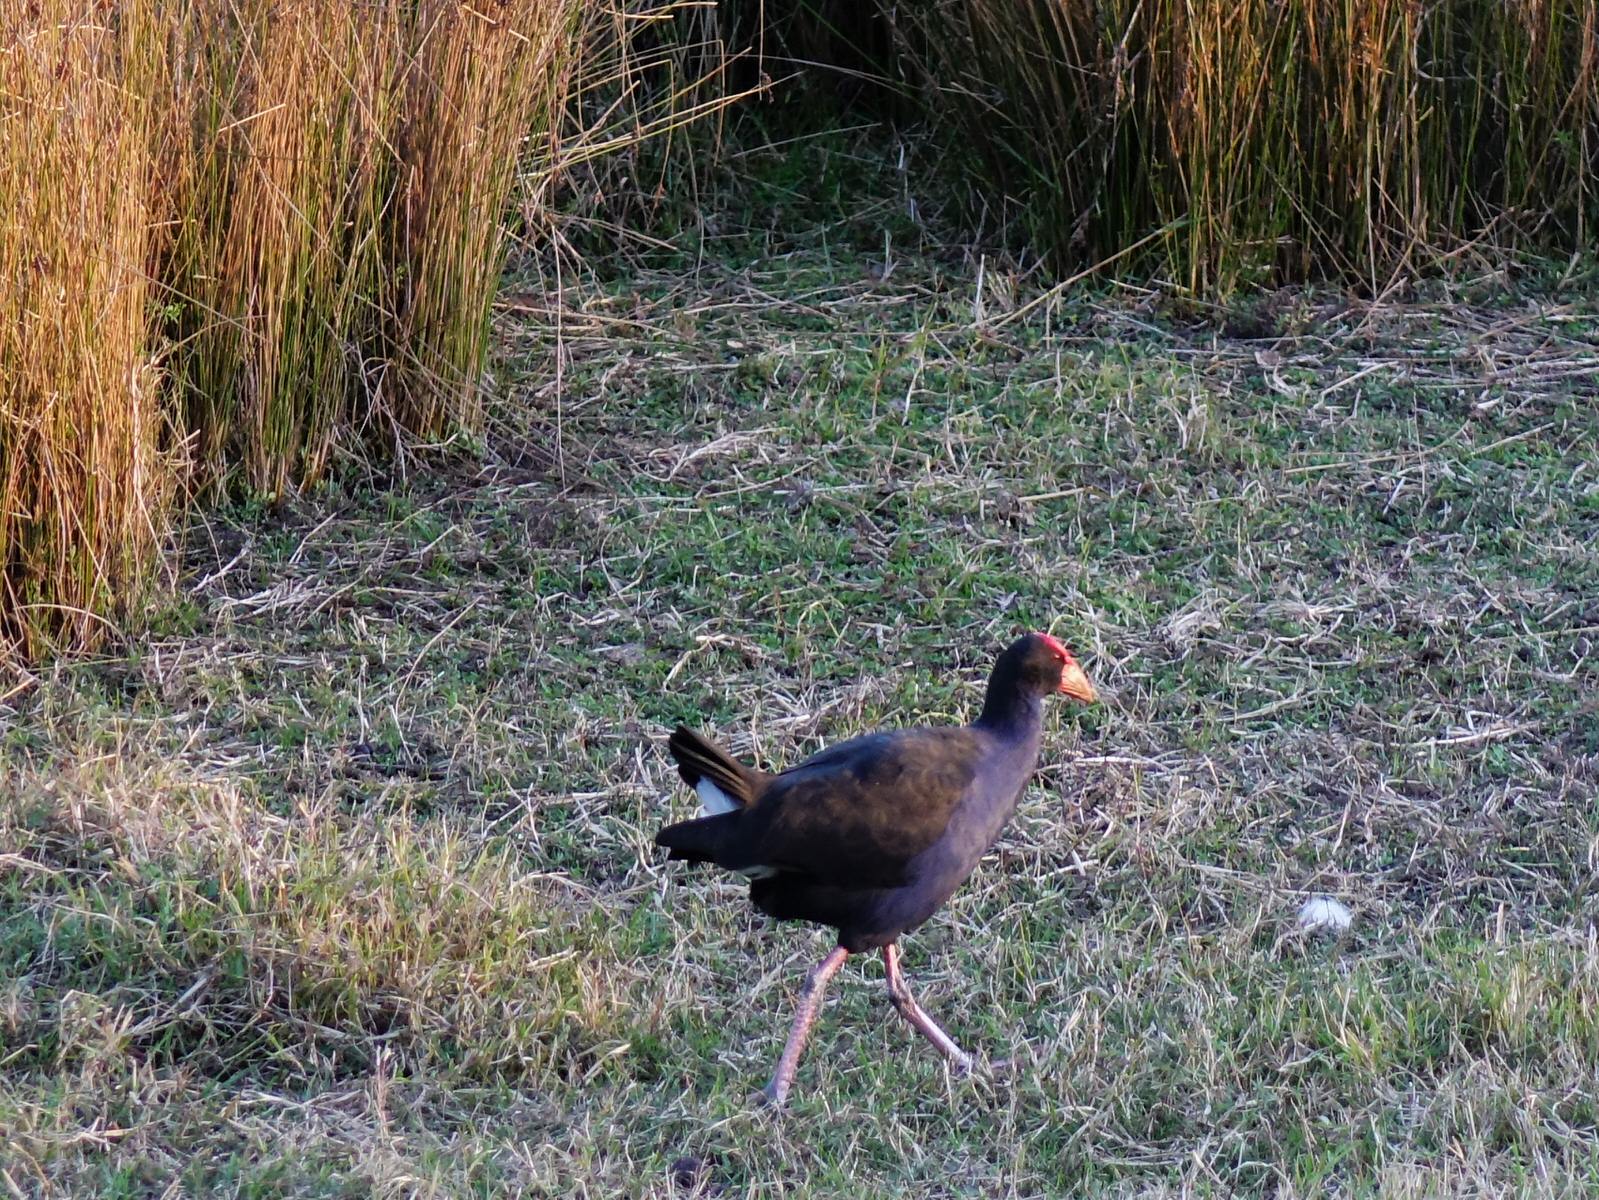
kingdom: Animalia
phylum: Chordata
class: Aves
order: Gruiformes
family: Rallidae
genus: Porphyrio
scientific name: Porphyrio melanotus
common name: Australasian swamphen
